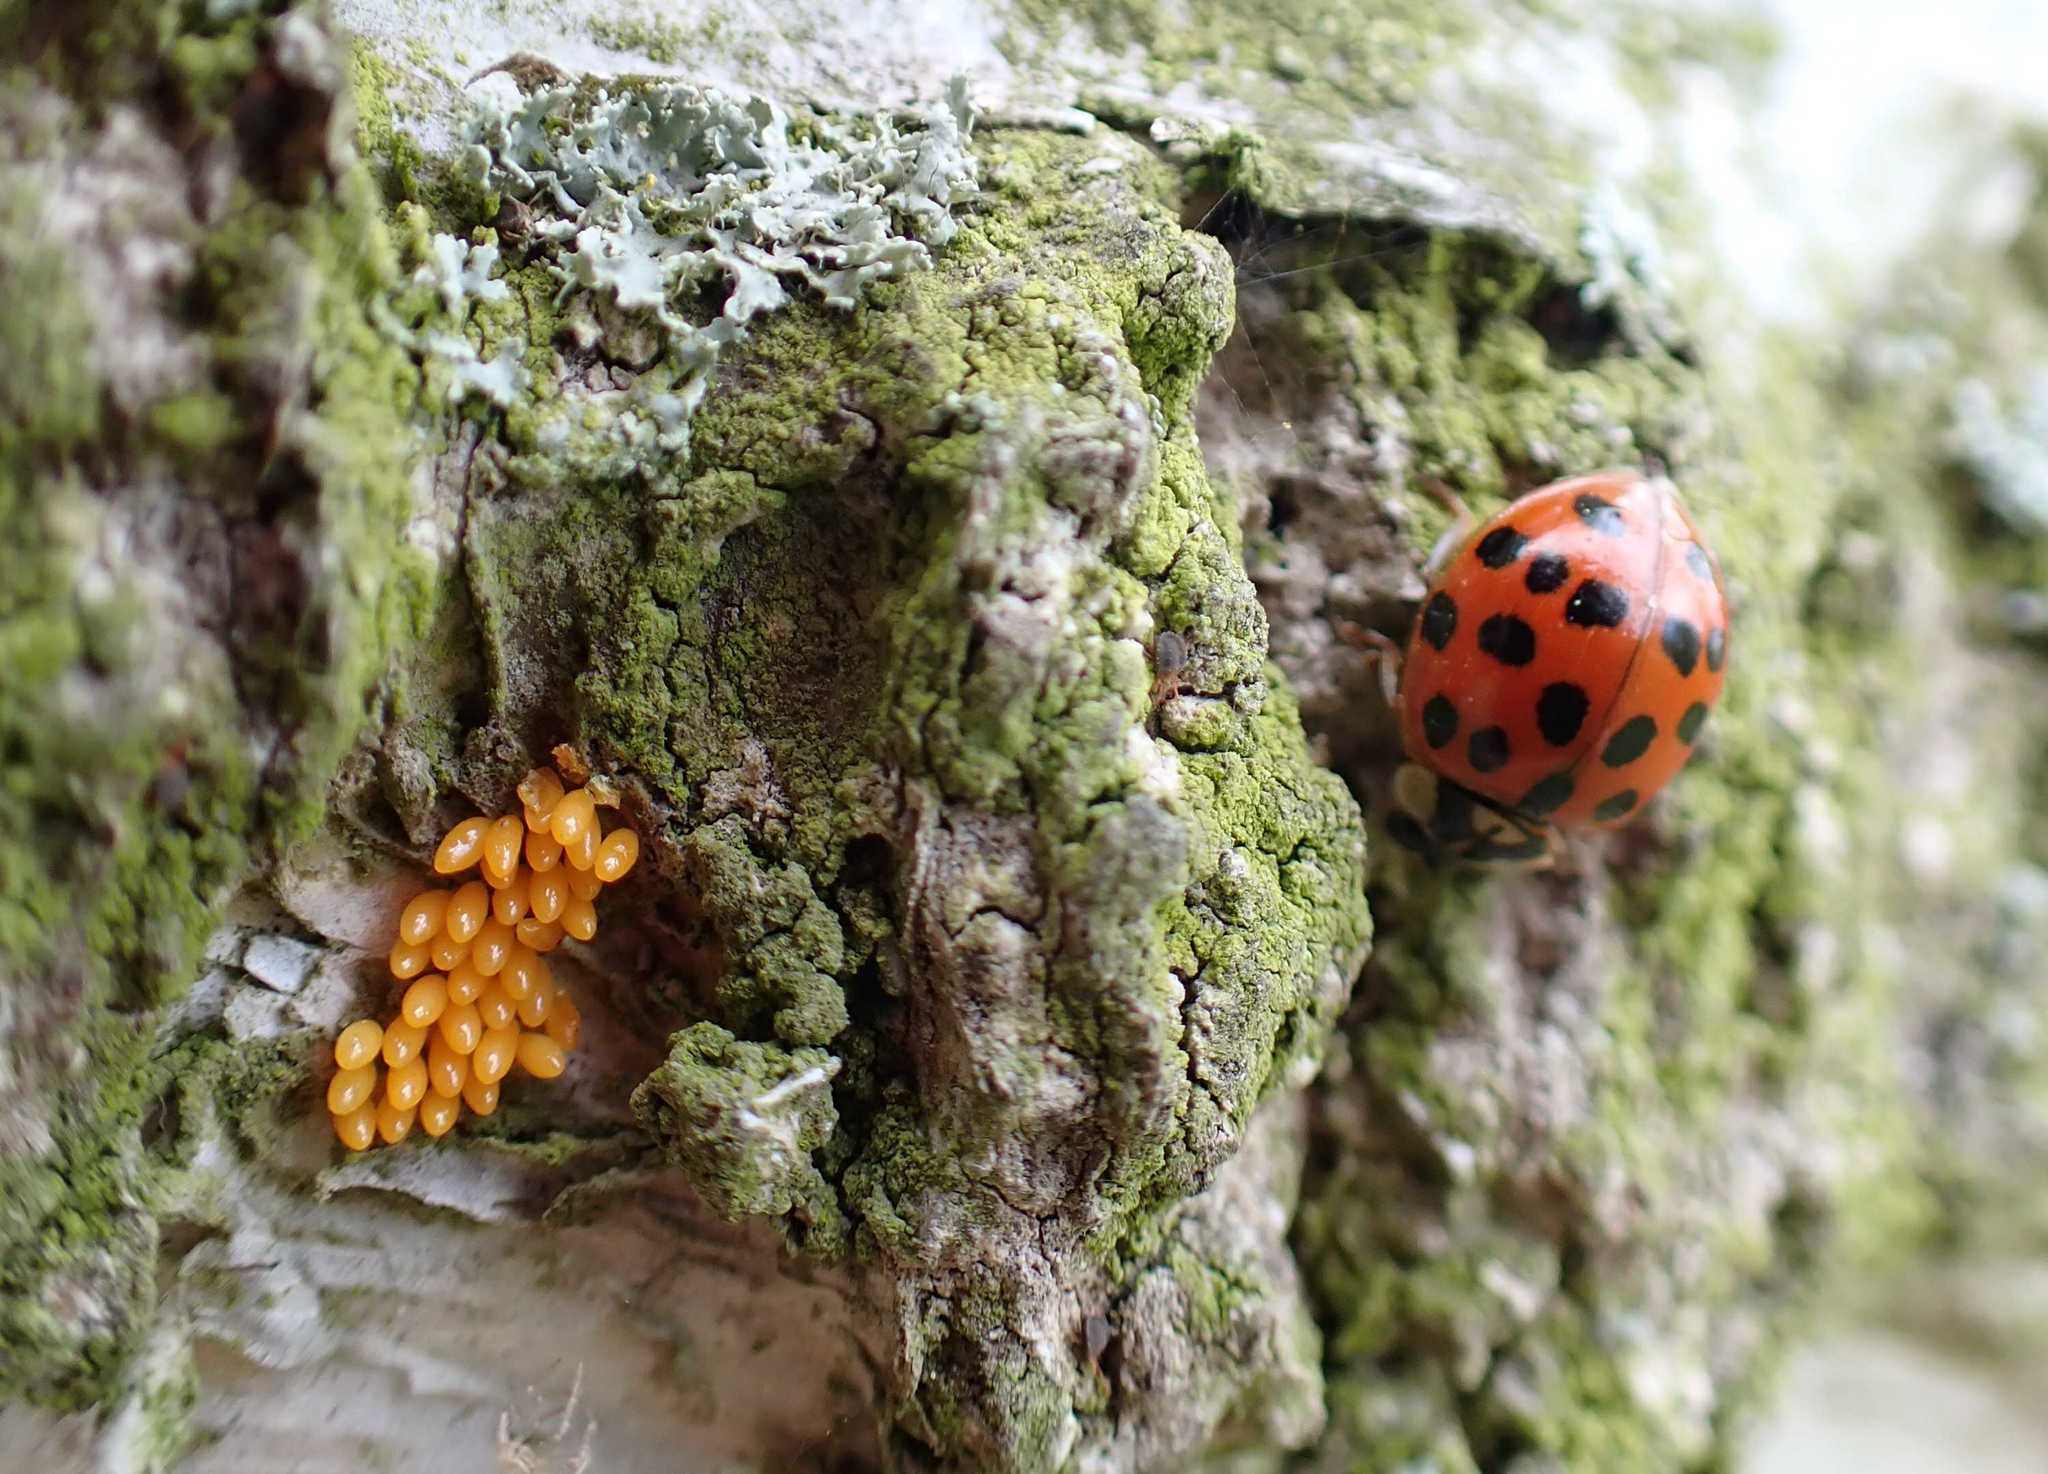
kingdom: Animalia
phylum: Arthropoda
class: Insecta
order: Coleoptera
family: Coccinellidae
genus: Harmonia
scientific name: Harmonia axyridis
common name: Harlequin ladybird
